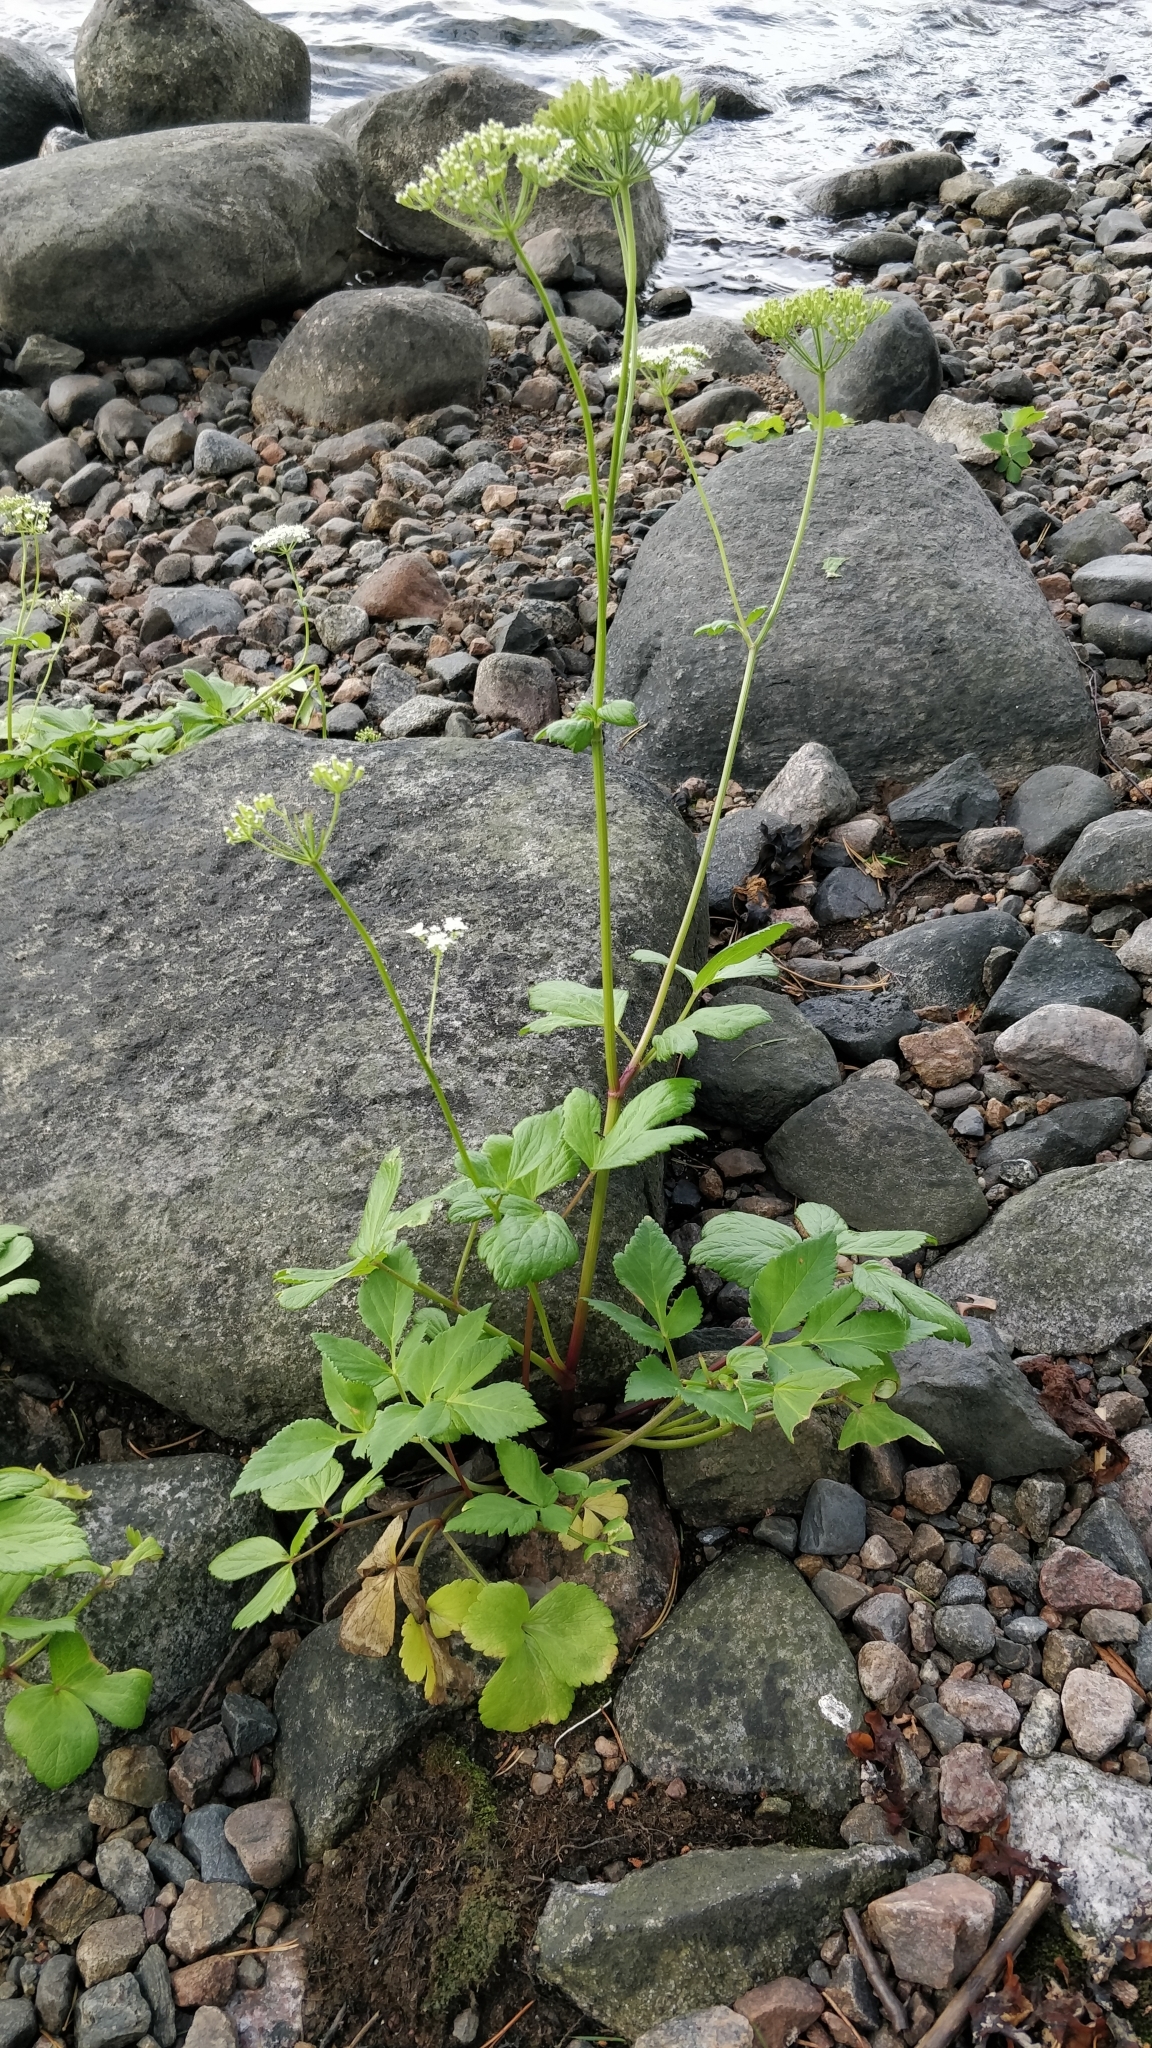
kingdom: Plantae
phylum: Tracheophyta
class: Magnoliopsida
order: Apiales
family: Apiaceae
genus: Ligusticum
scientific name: Ligusticum scothicum
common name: Beach lovage
